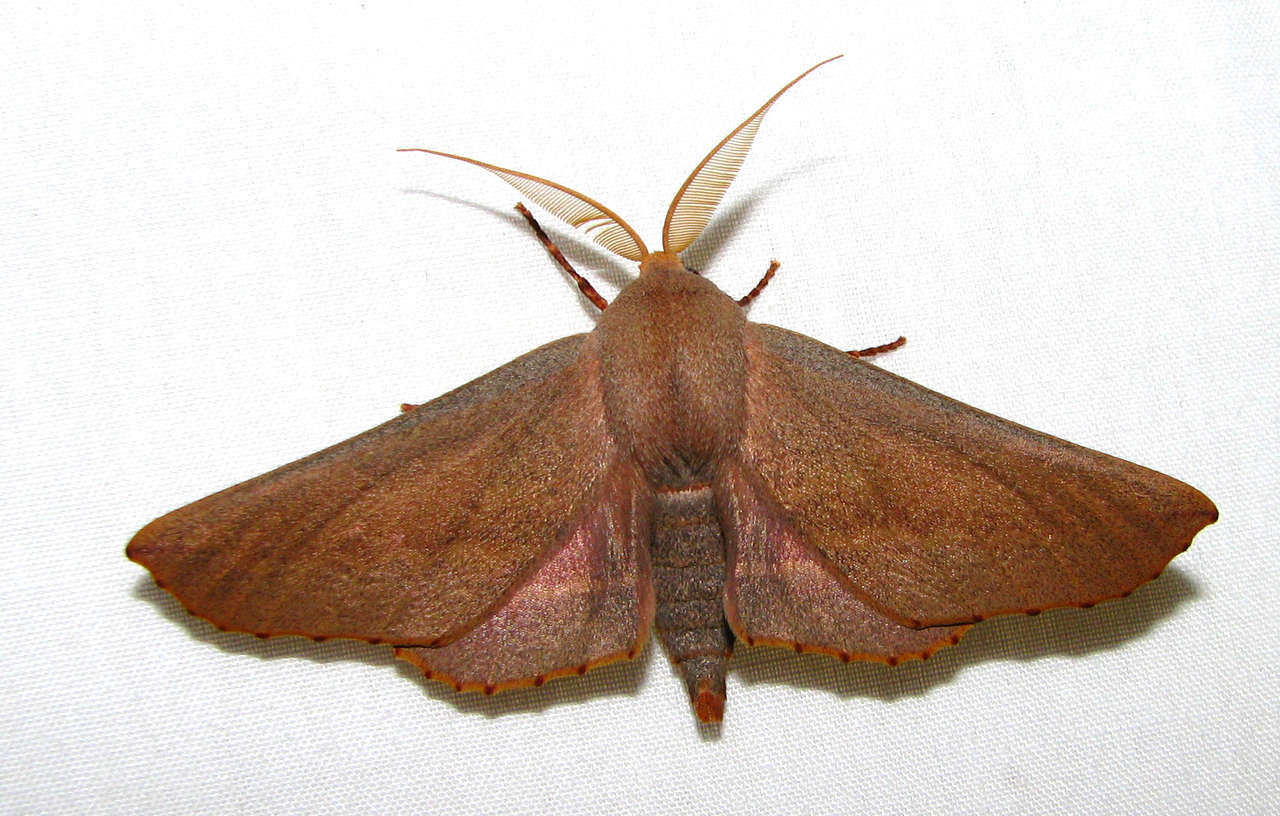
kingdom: Animalia
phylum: Arthropoda
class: Insecta
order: Lepidoptera
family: Geometridae
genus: Monoctenia
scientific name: Monoctenia smerintharia
